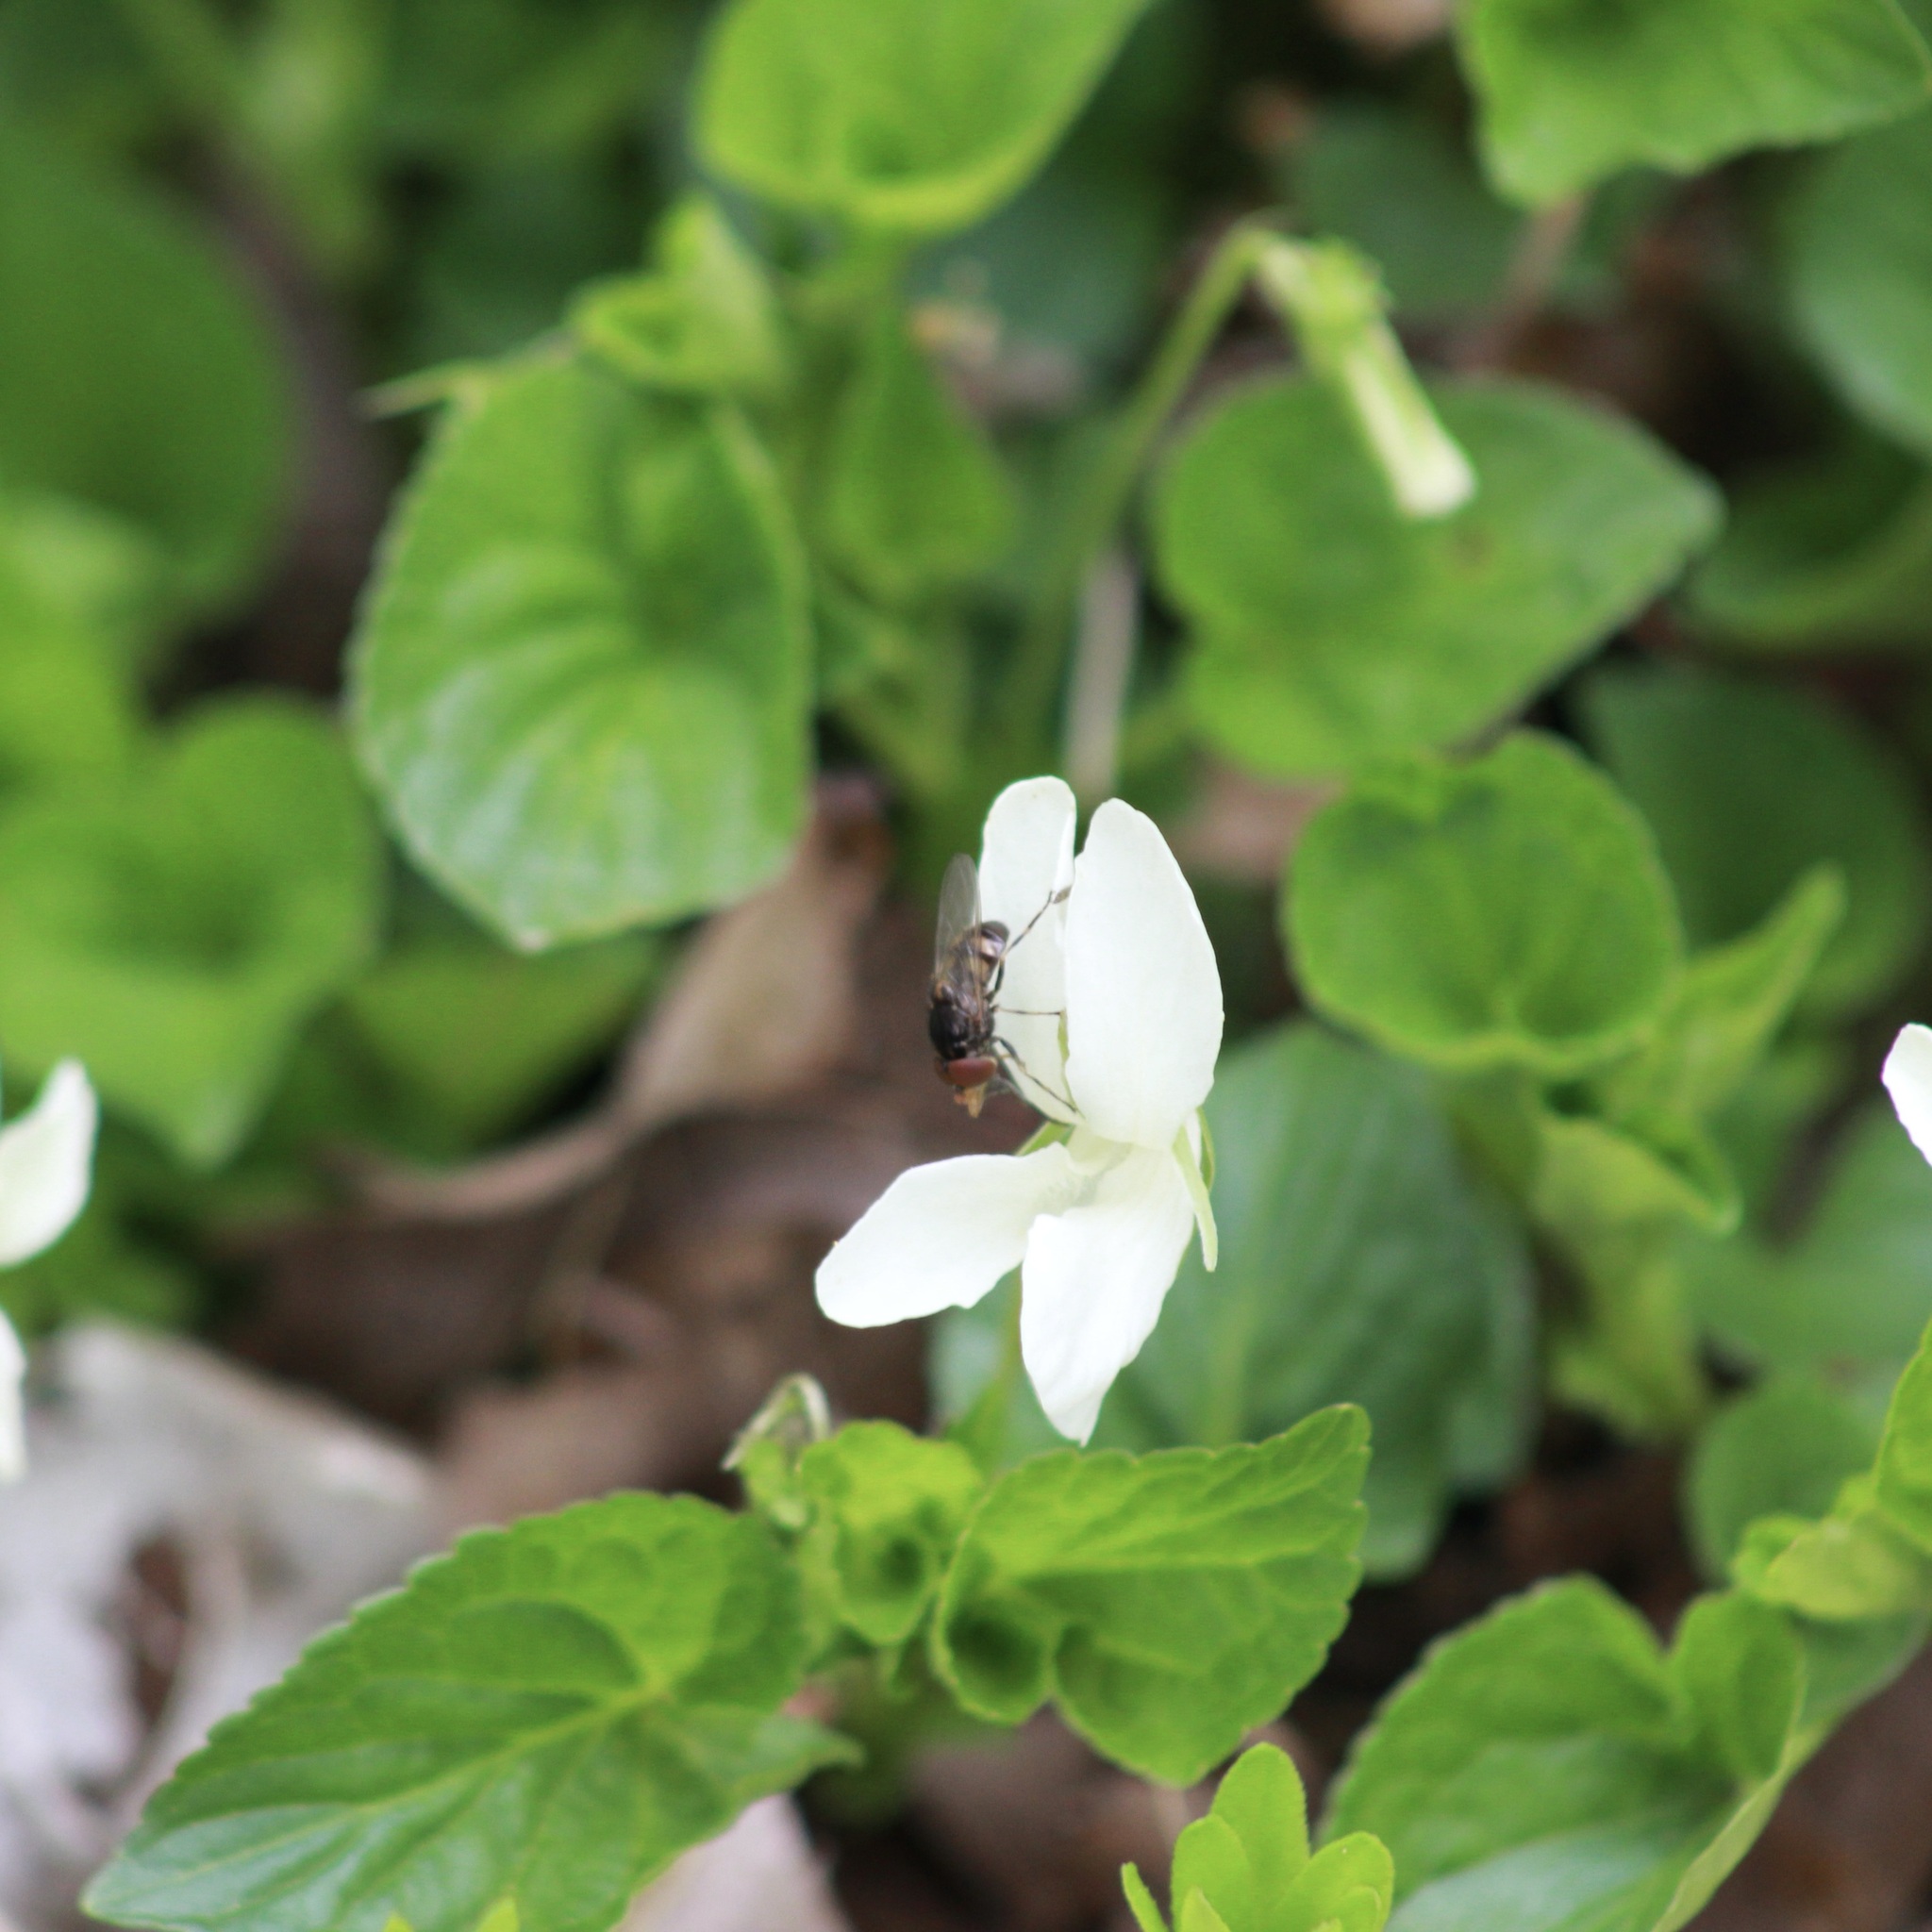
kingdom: Animalia
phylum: Arthropoda
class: Insecta
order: Diptera
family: Syrphidae
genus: Rhingia
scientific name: Rhingia nasica
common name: American snout fly
